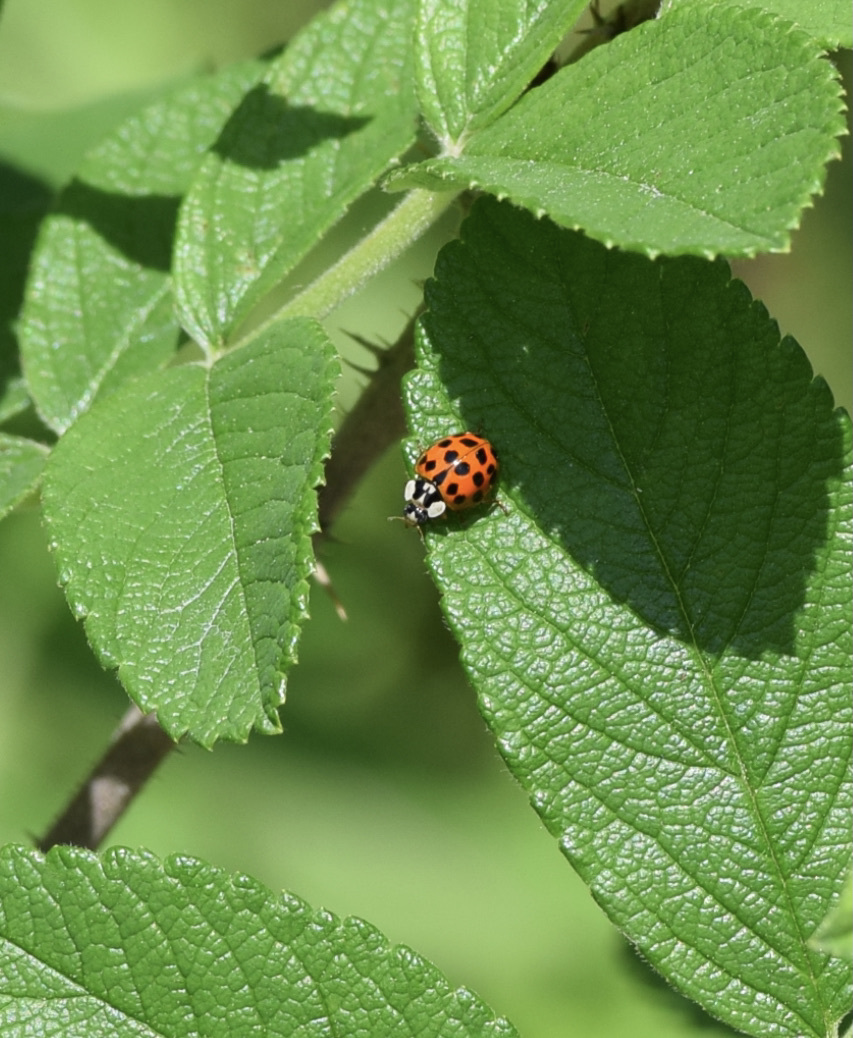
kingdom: Animalia
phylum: Arthropoda
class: Insecta
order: Coleoptera
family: Coccinellidae
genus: Harmonia
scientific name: Harmonia axyridis
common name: Harlequin ladybird
